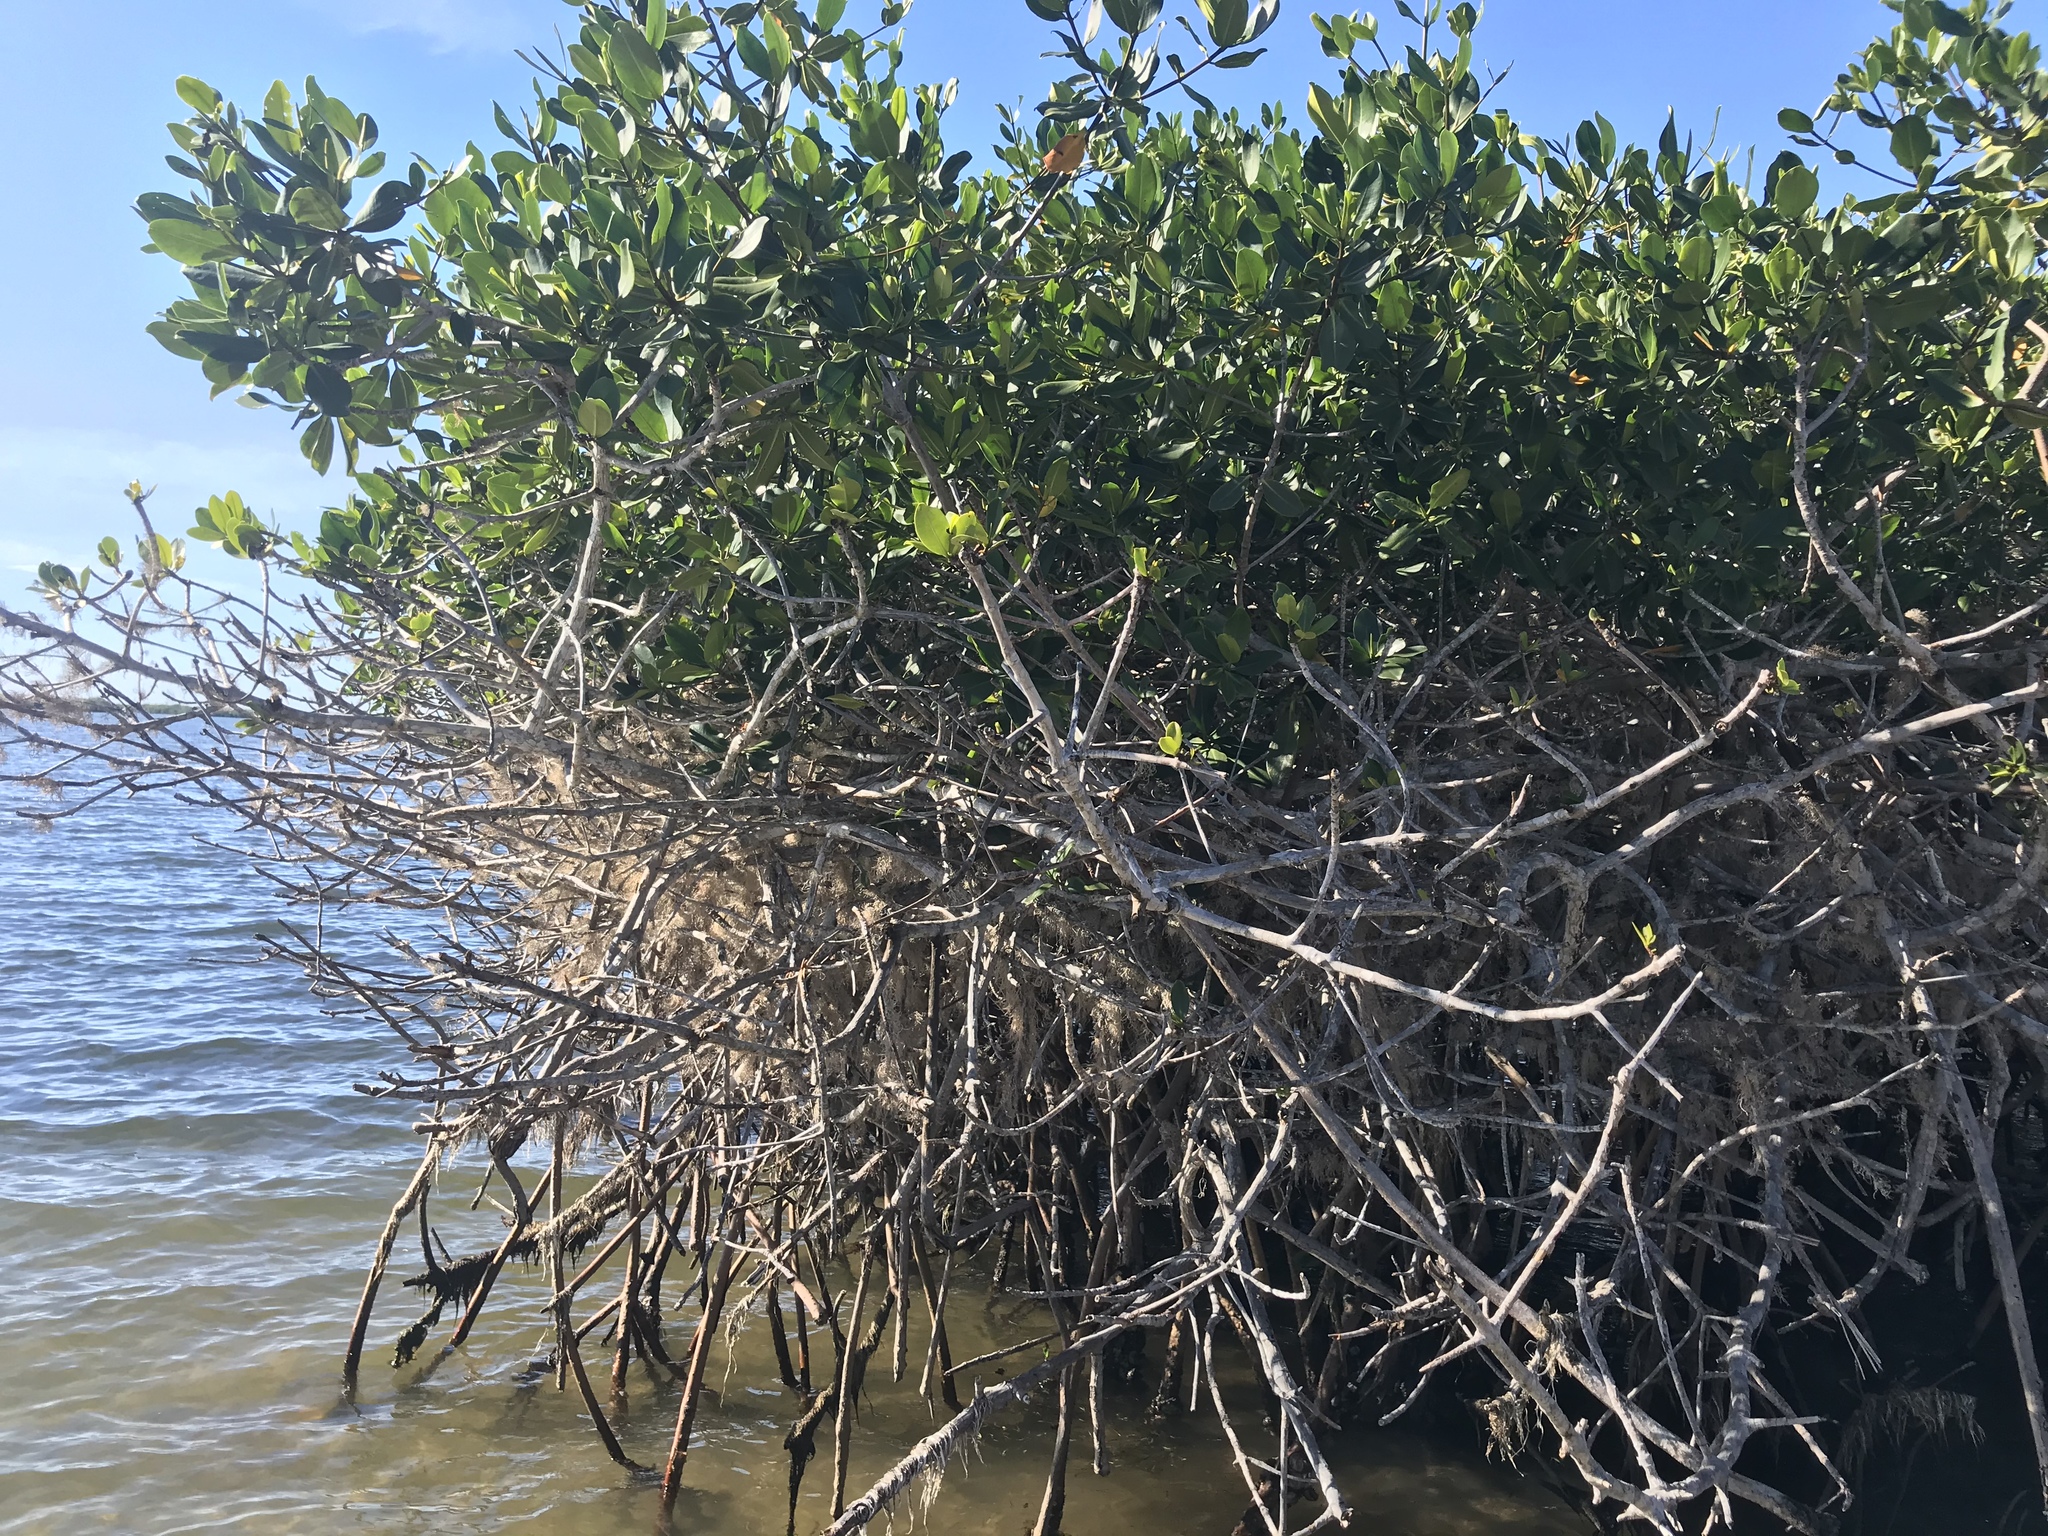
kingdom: Plantae
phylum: Tracheophyta
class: Magnoliopsida
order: Malpighiales
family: Rhizophoraceae
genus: Rhizophora
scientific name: Rhizophora mangle
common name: Red mangrove
